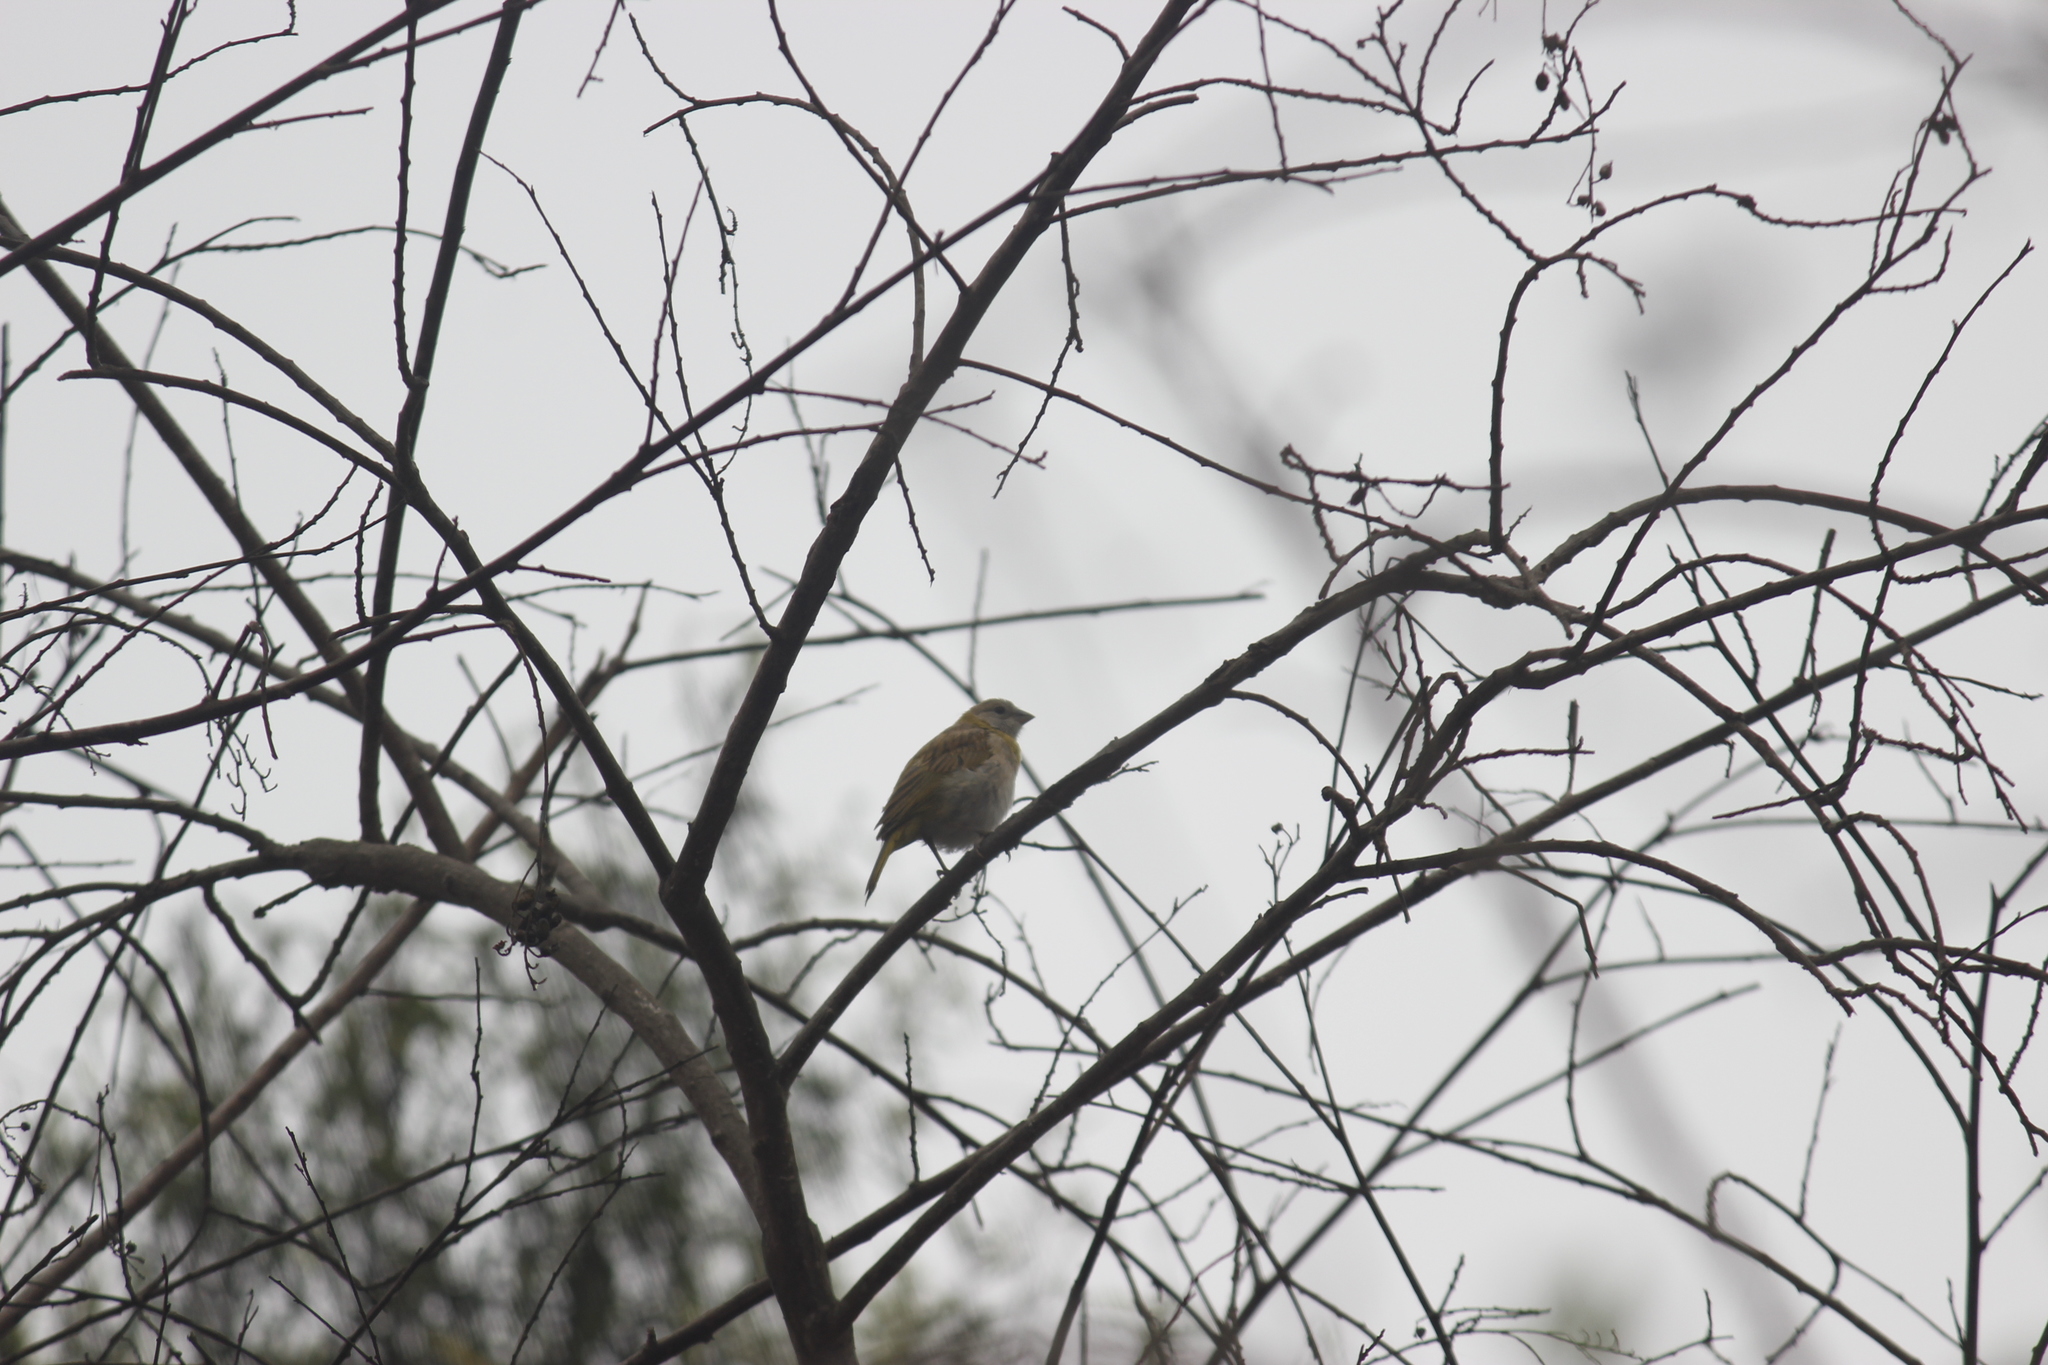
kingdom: Animalia
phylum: Chordata
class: Aves
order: Passeriformes
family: Thraupidae
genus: Sicalis
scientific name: Sicalis flaveola
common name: Saffron finch
